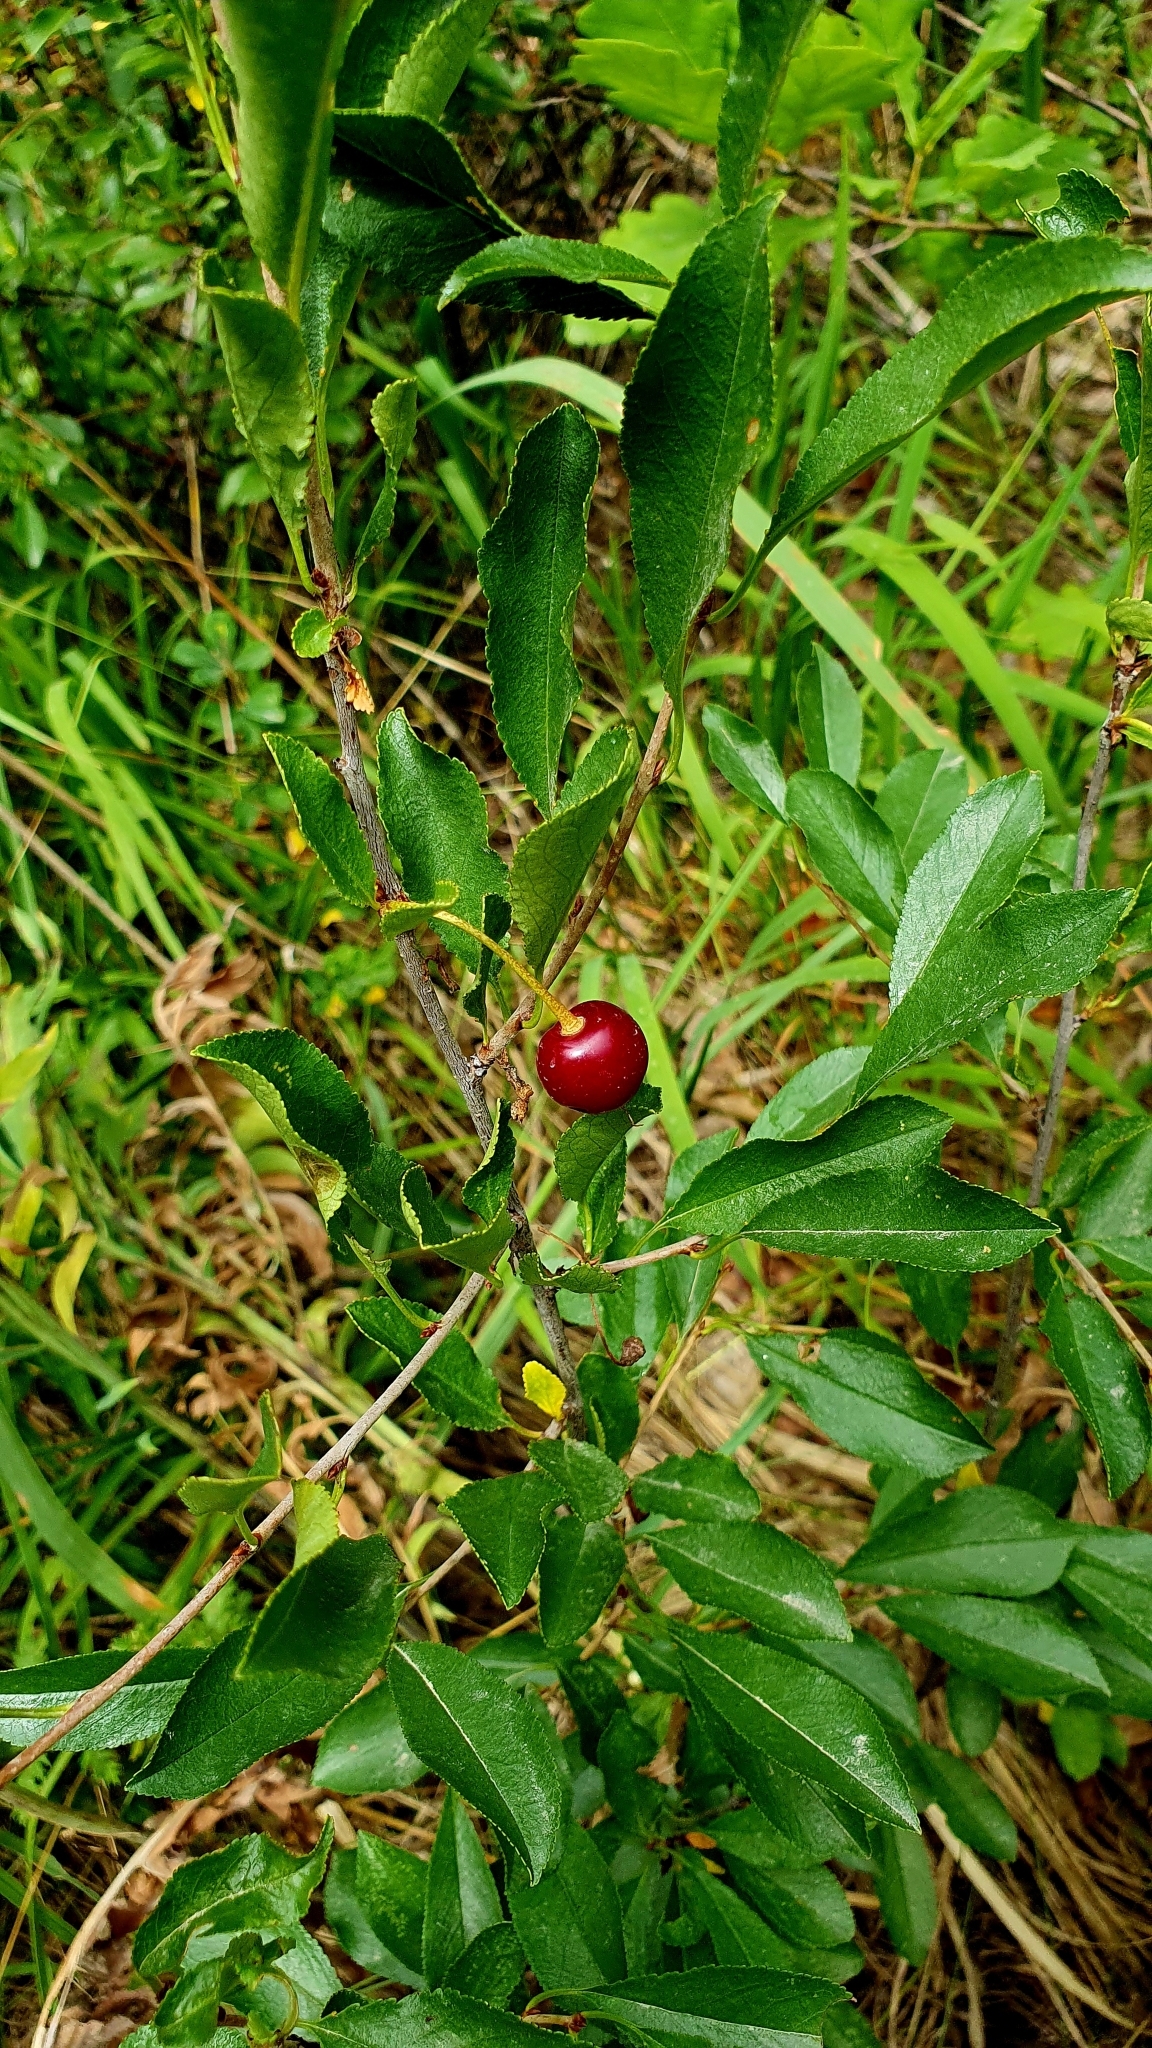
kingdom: Plantae
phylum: Tracheophyta
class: Magnoliopsida
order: Rosales
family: Rosaceae
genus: Prunus
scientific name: Prunus fruticosa
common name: European dwarf cherry
